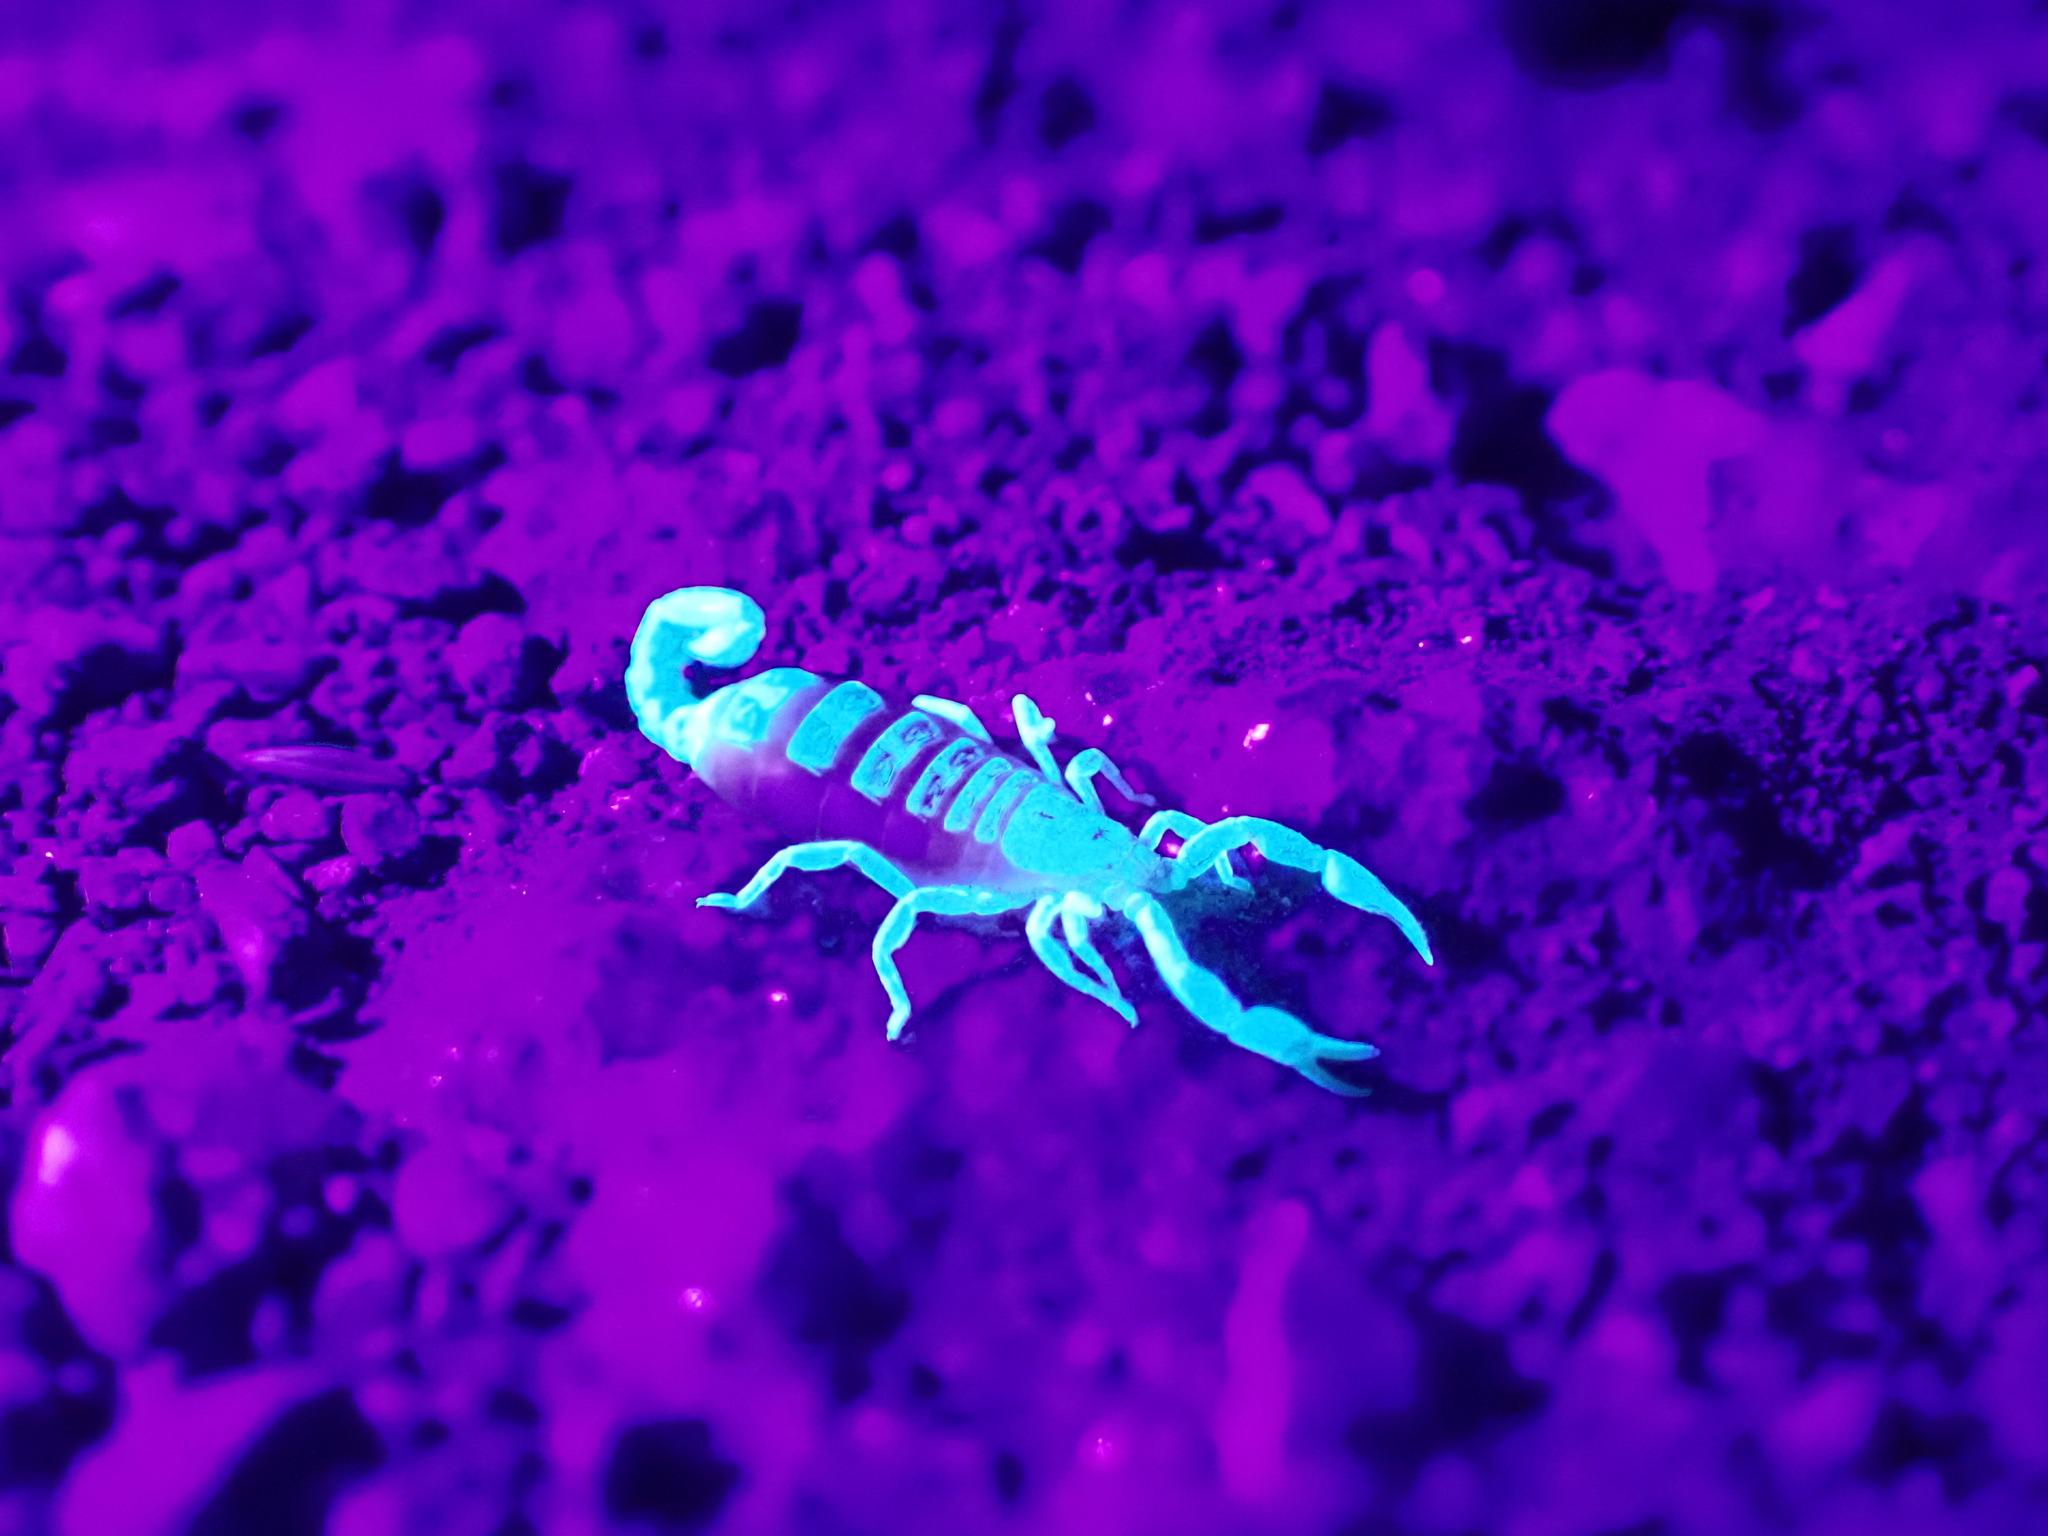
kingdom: Animalia
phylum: Arthropoda
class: Arachnida
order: Scorpiones
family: Vaejovidae
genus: Catalinia
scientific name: Catalinia thompsoni
